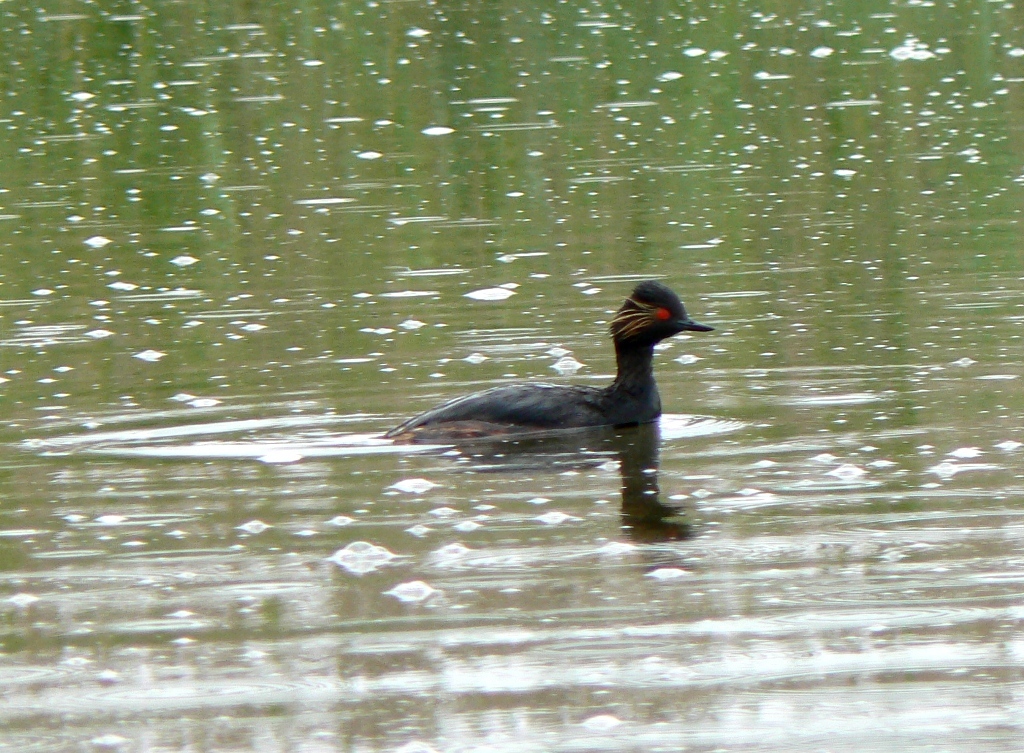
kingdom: Animalia
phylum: Chordata
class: Aves
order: Podicipediformes
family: Podicipedidae
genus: Podiceps
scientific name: Podiceps nigricollis
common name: Black-necked grebe
